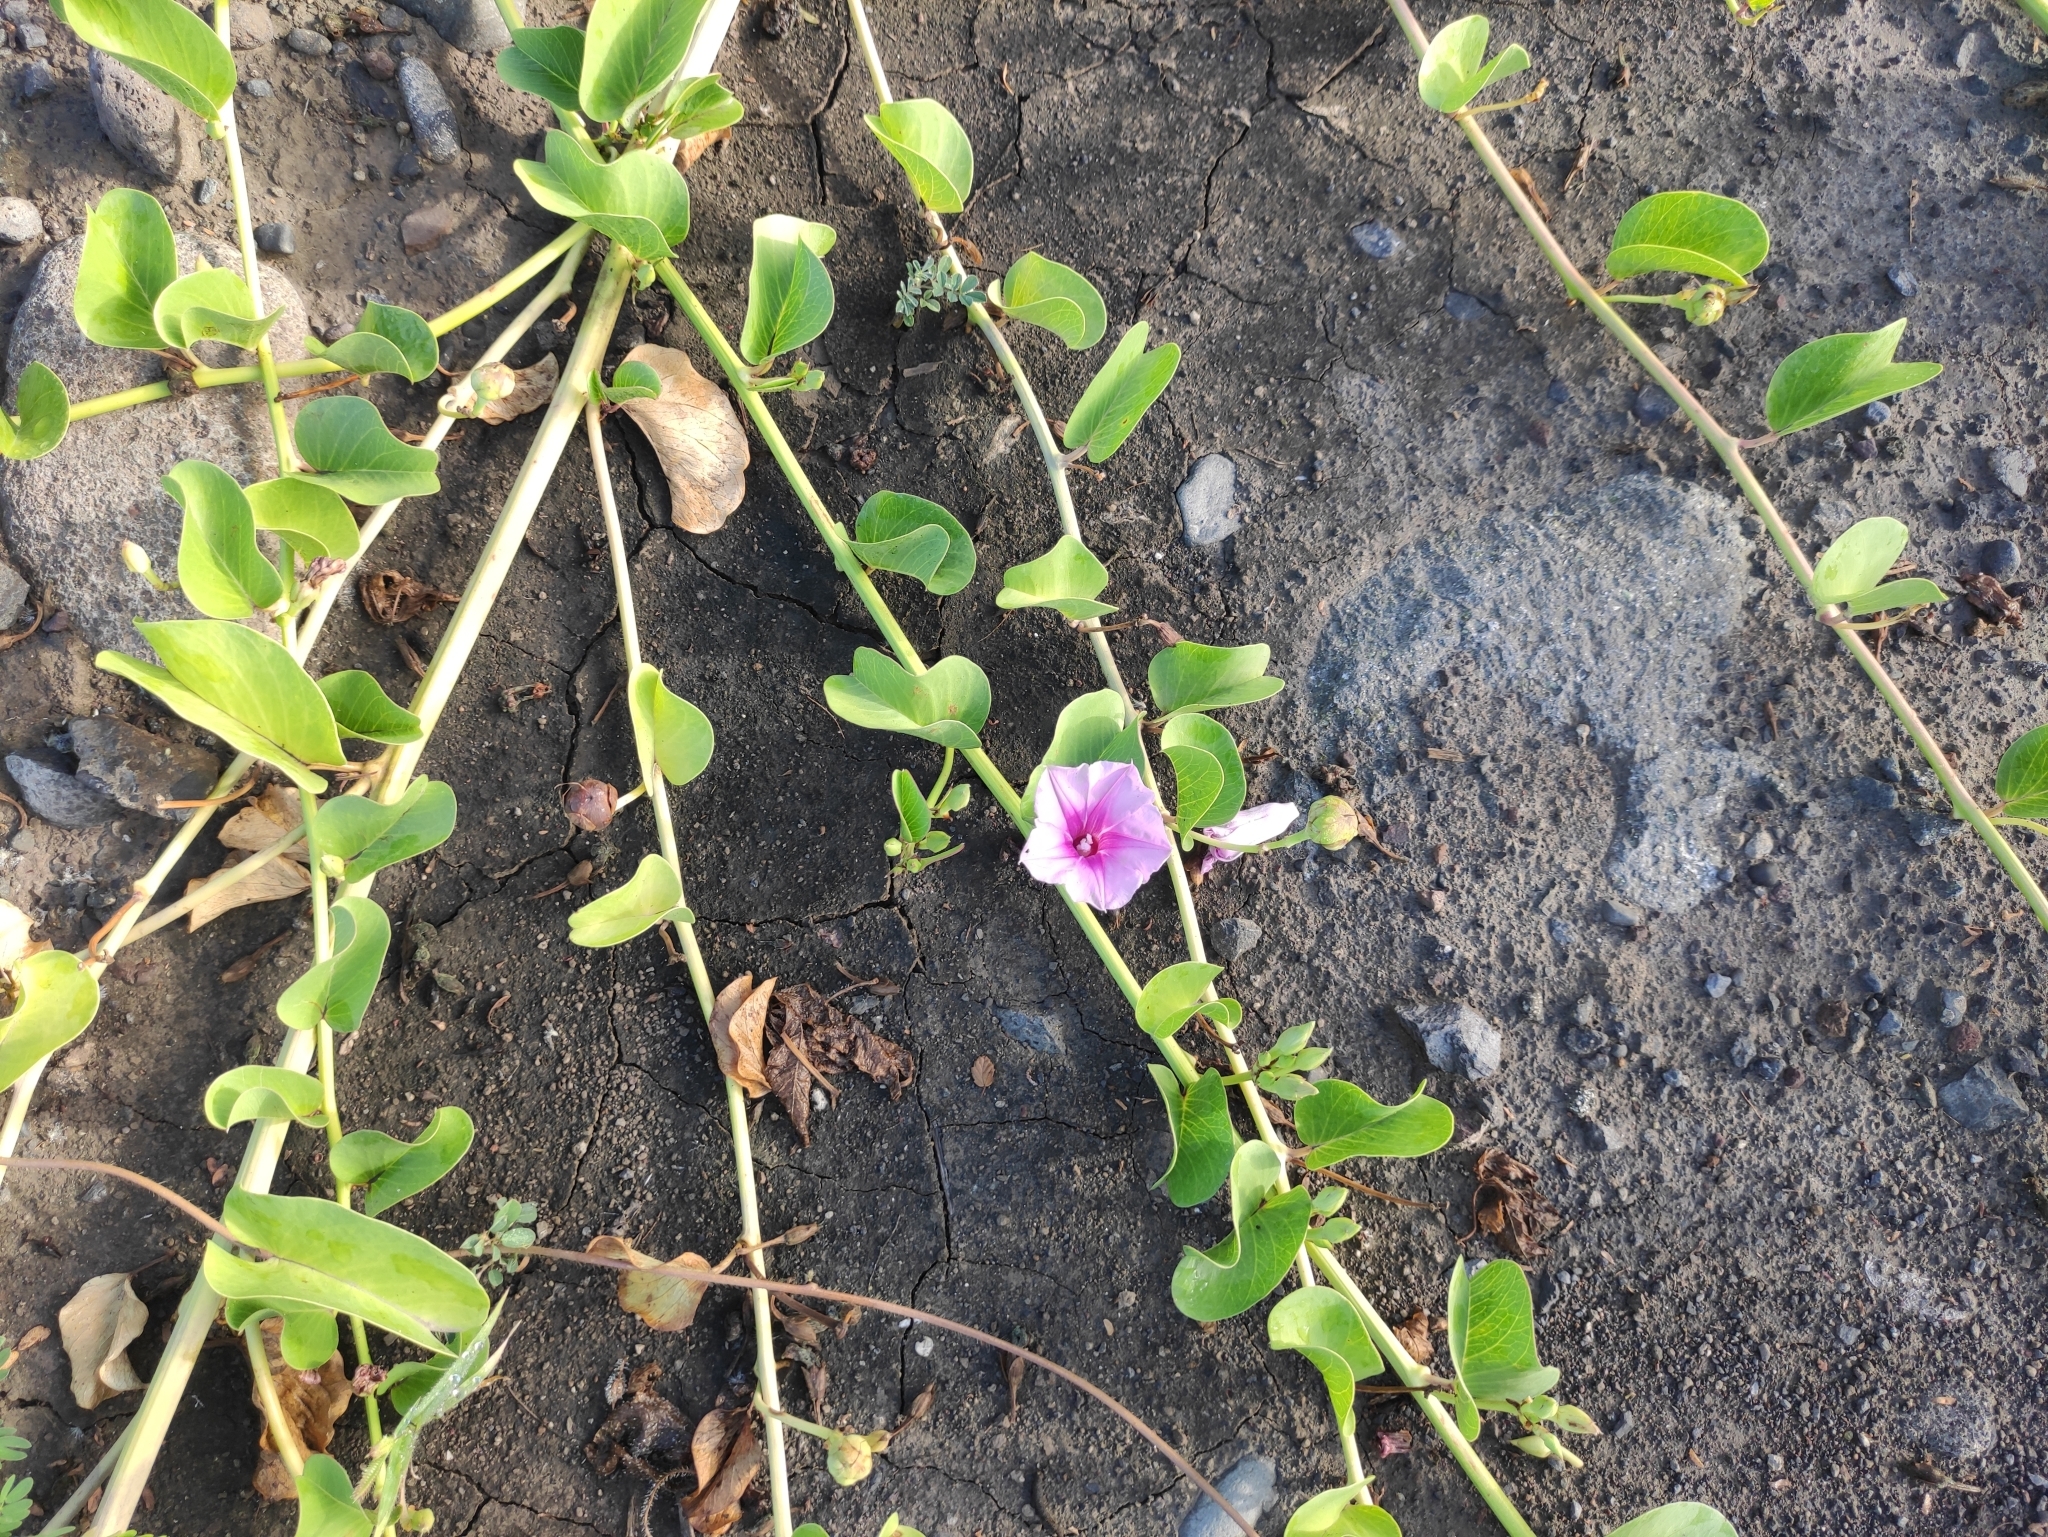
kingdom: Plantae
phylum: Tracheophyta
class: Magnoliopsida
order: Solanales
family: Convolvulaceae
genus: Ipomoea
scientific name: Ipomoea pes-caprae
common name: Beach morning glory
